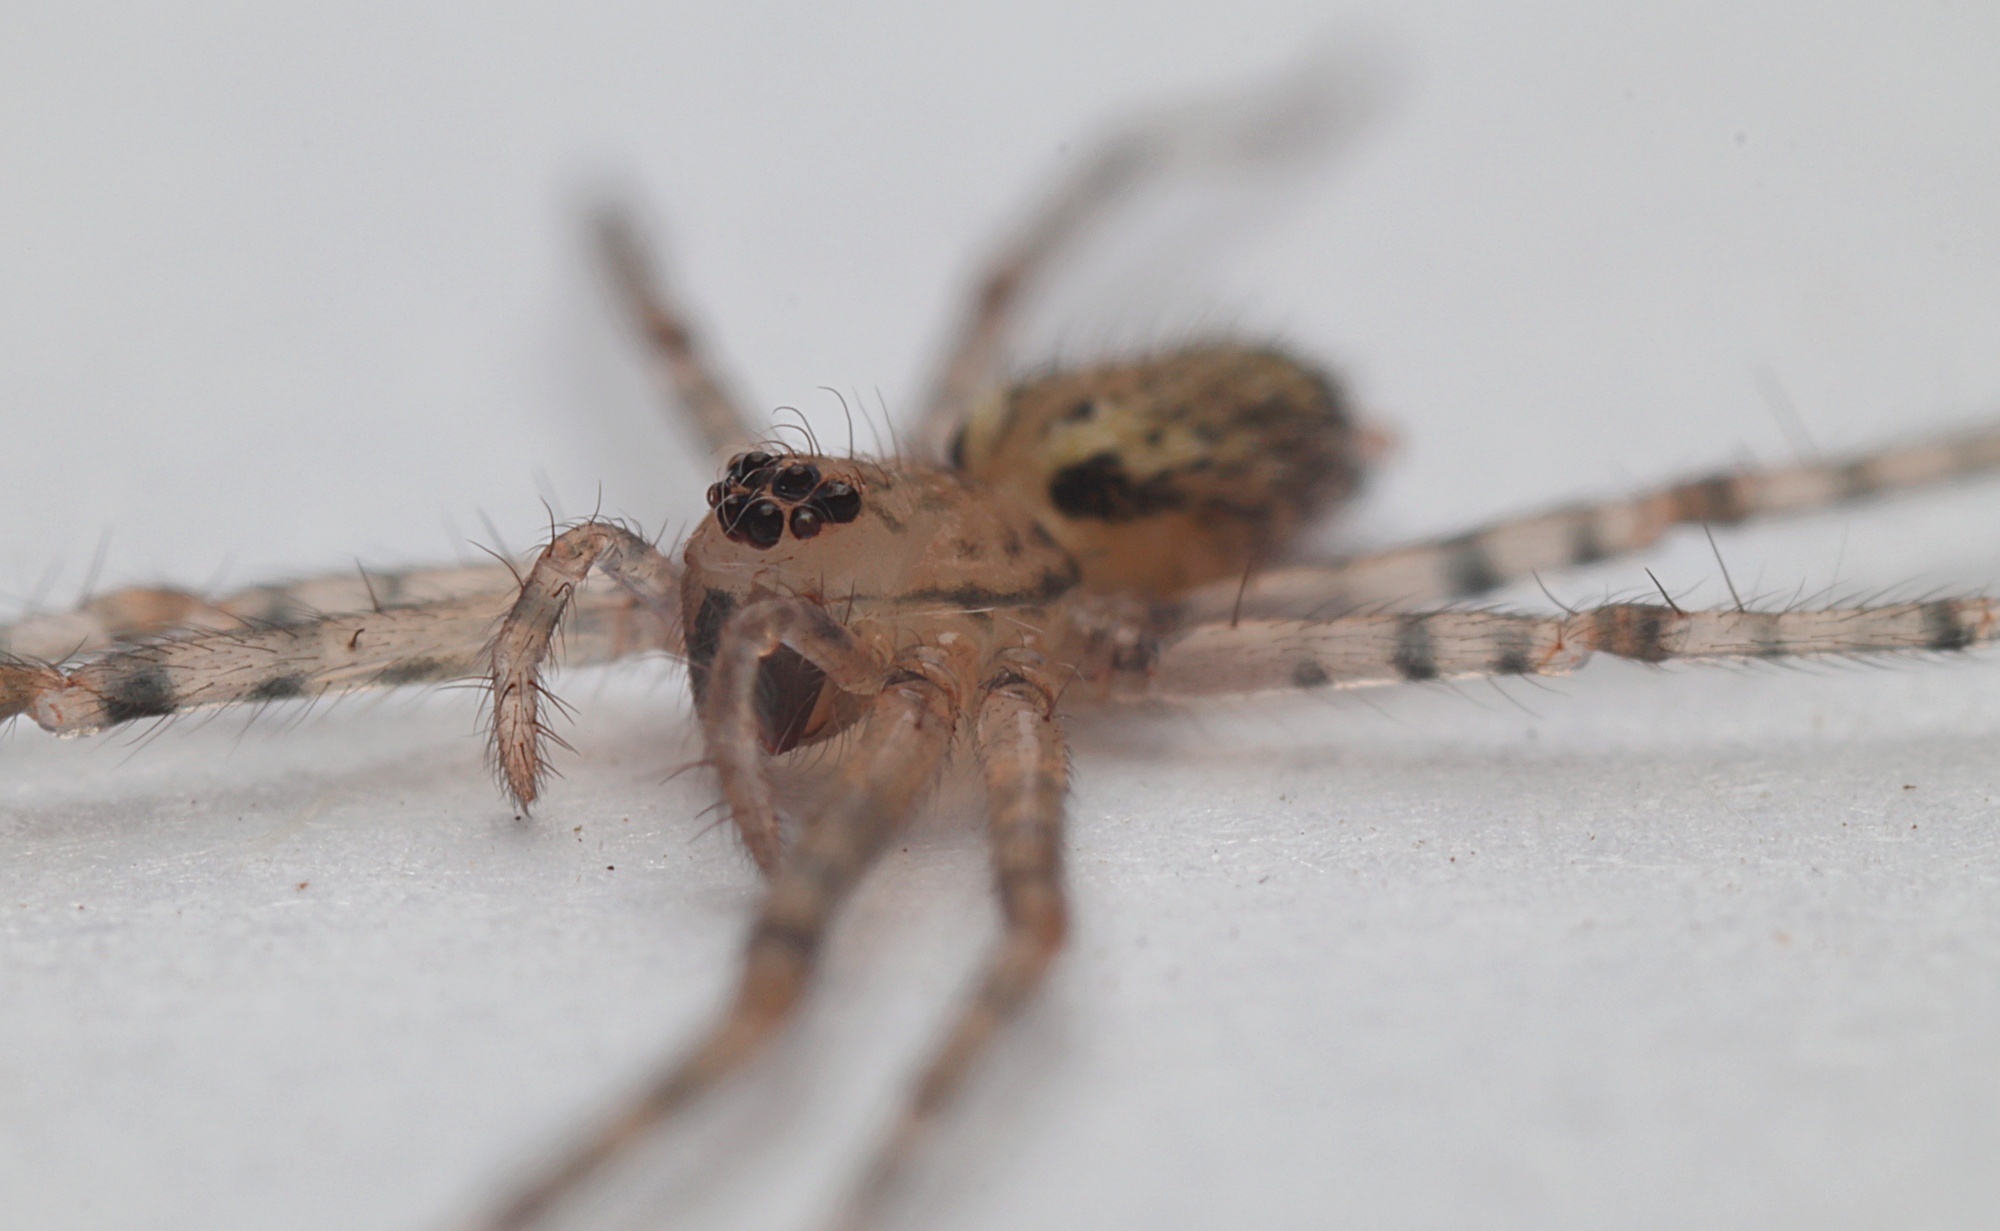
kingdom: Animalia
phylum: Arthropoda
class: Arachnida
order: Araneae
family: Stiphidiidae
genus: Stiphidion
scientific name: Stiphidion facetum
